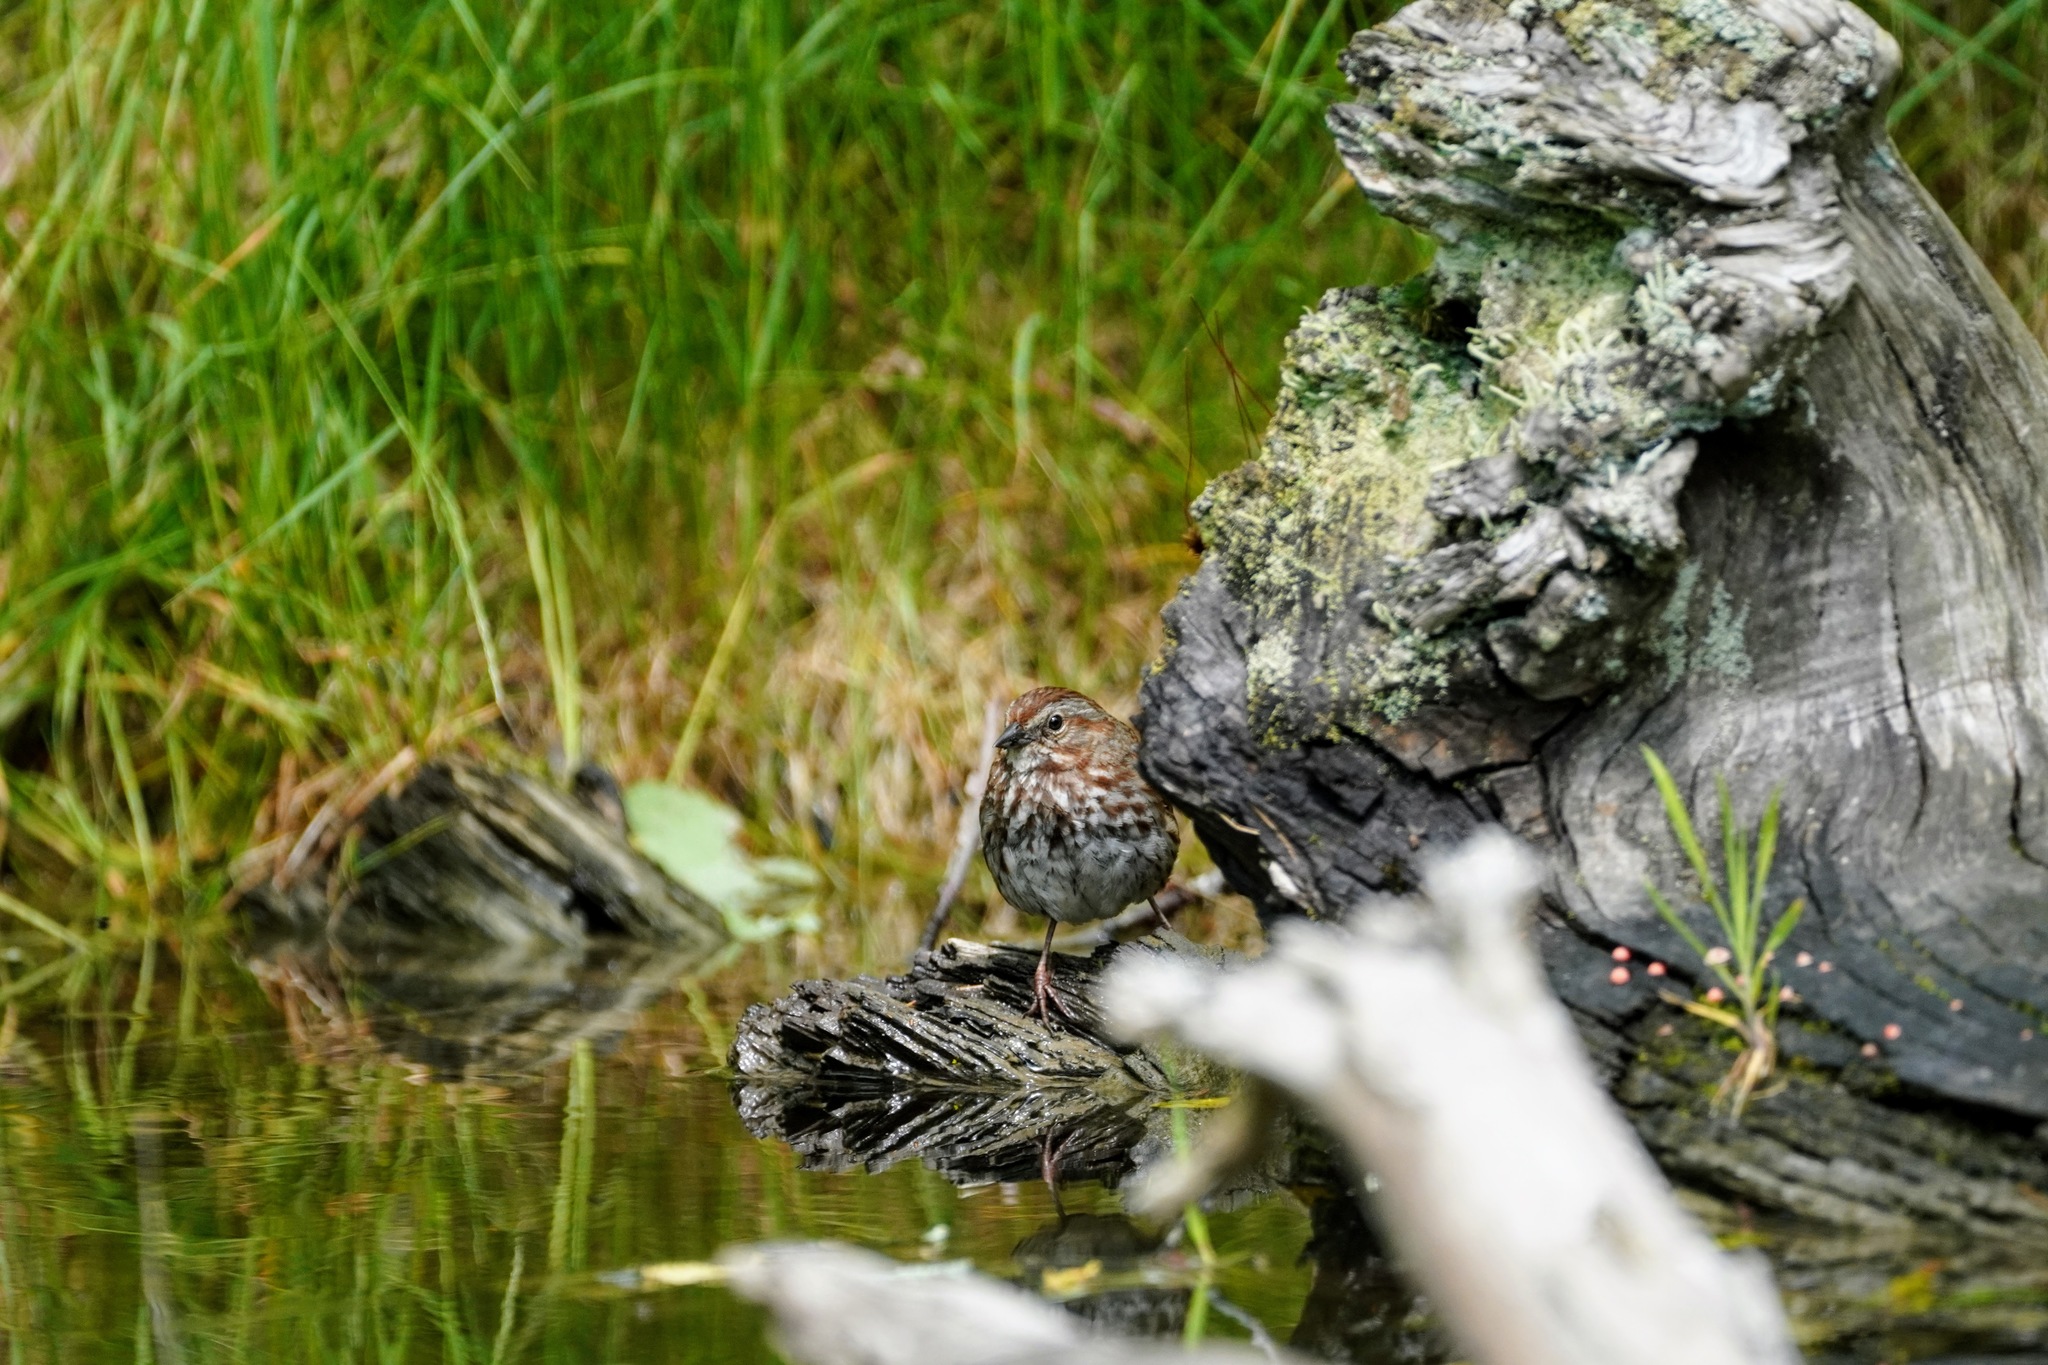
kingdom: Animalia
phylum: Chordata
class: Aves
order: Passeriformes
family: Passerellidae
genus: Melospiza
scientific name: Melospiza melodia
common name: Song sparrow
